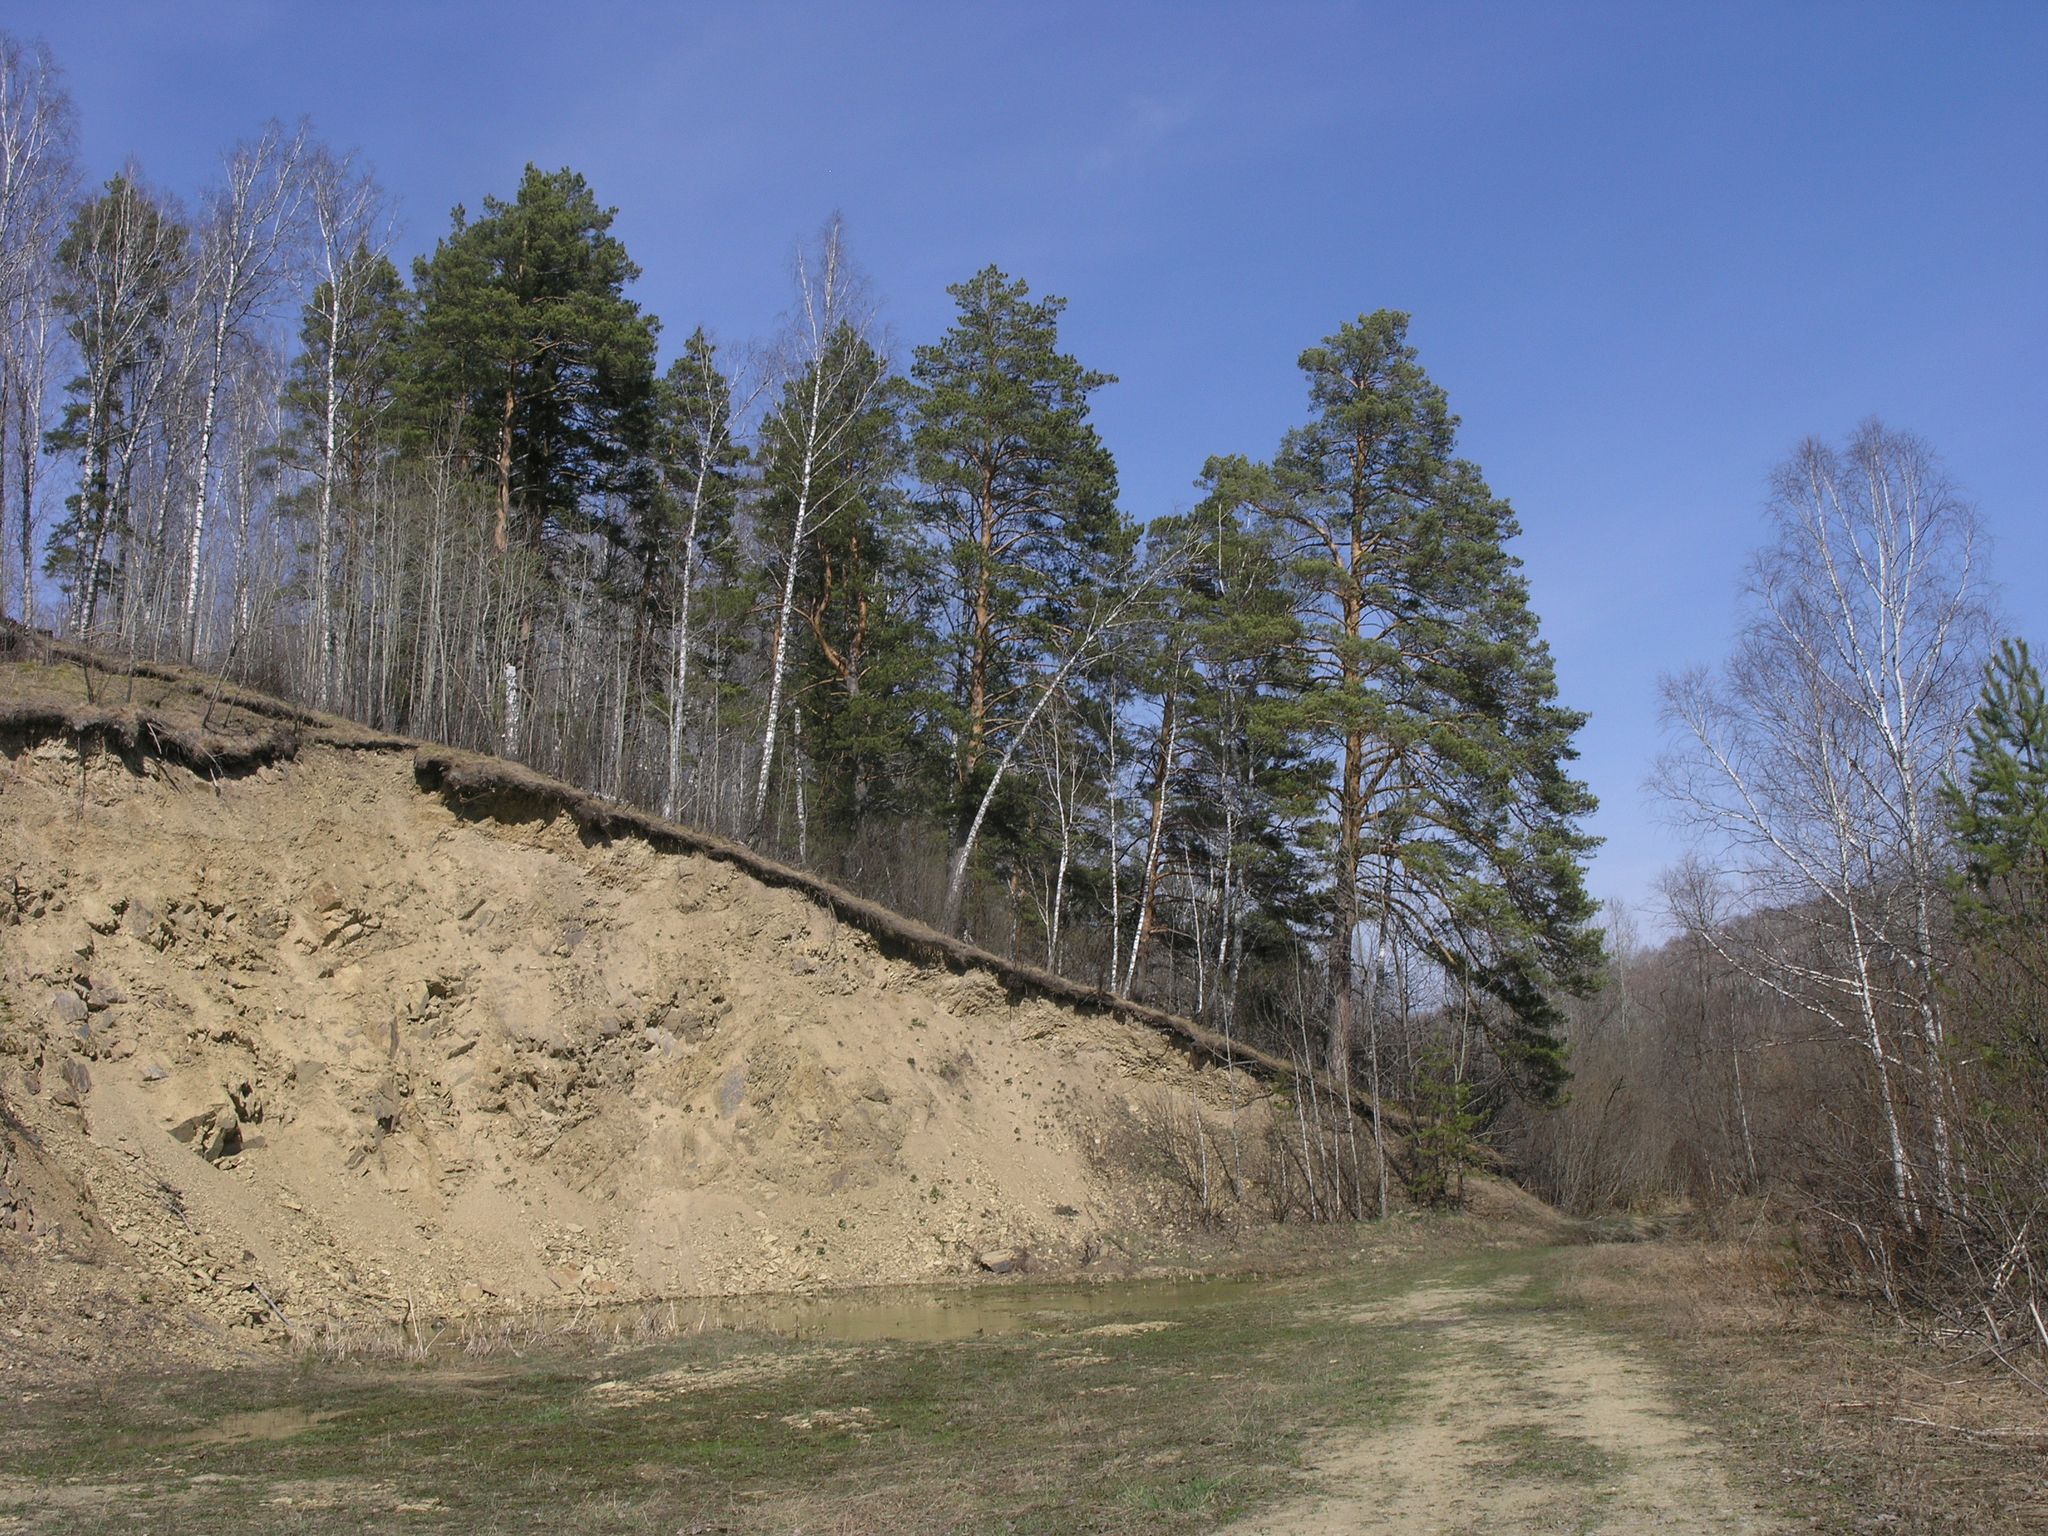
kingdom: Plantae
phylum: Tracheophyta
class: Pinopsida
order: Pinales
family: Pinaceae
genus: Pinus
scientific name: Pinus sylvestris
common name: Scots pine
